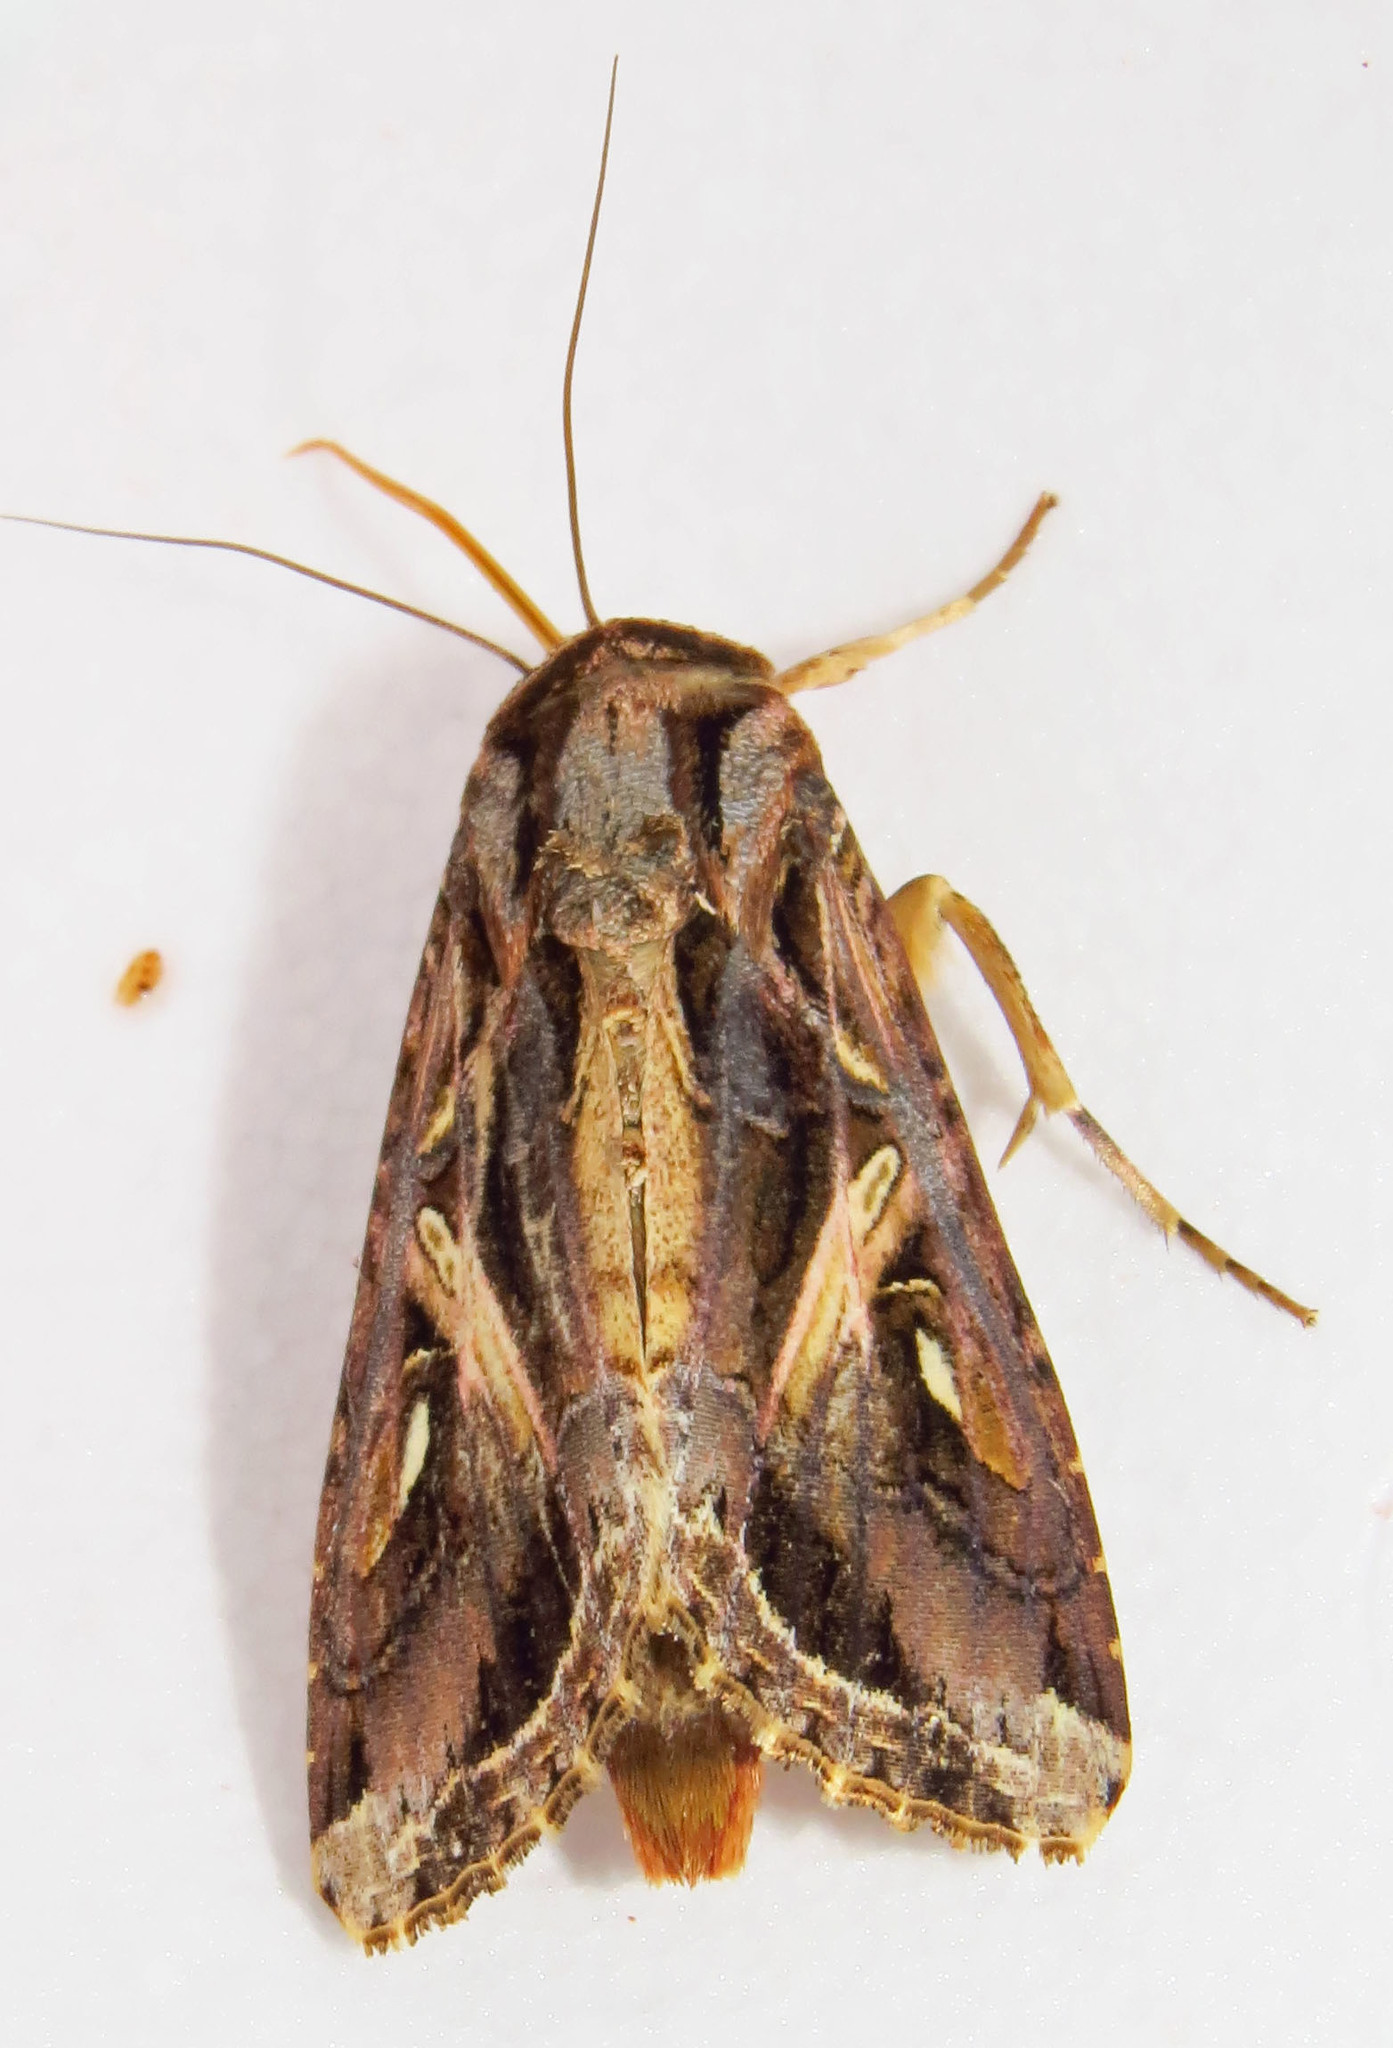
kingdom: Animalia
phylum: Arthropoda
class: Insecta
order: Lepidoptera
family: Noctuidae
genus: Spodoptera
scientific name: Spodoptera dolichos
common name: Sweetpotato armyworm
